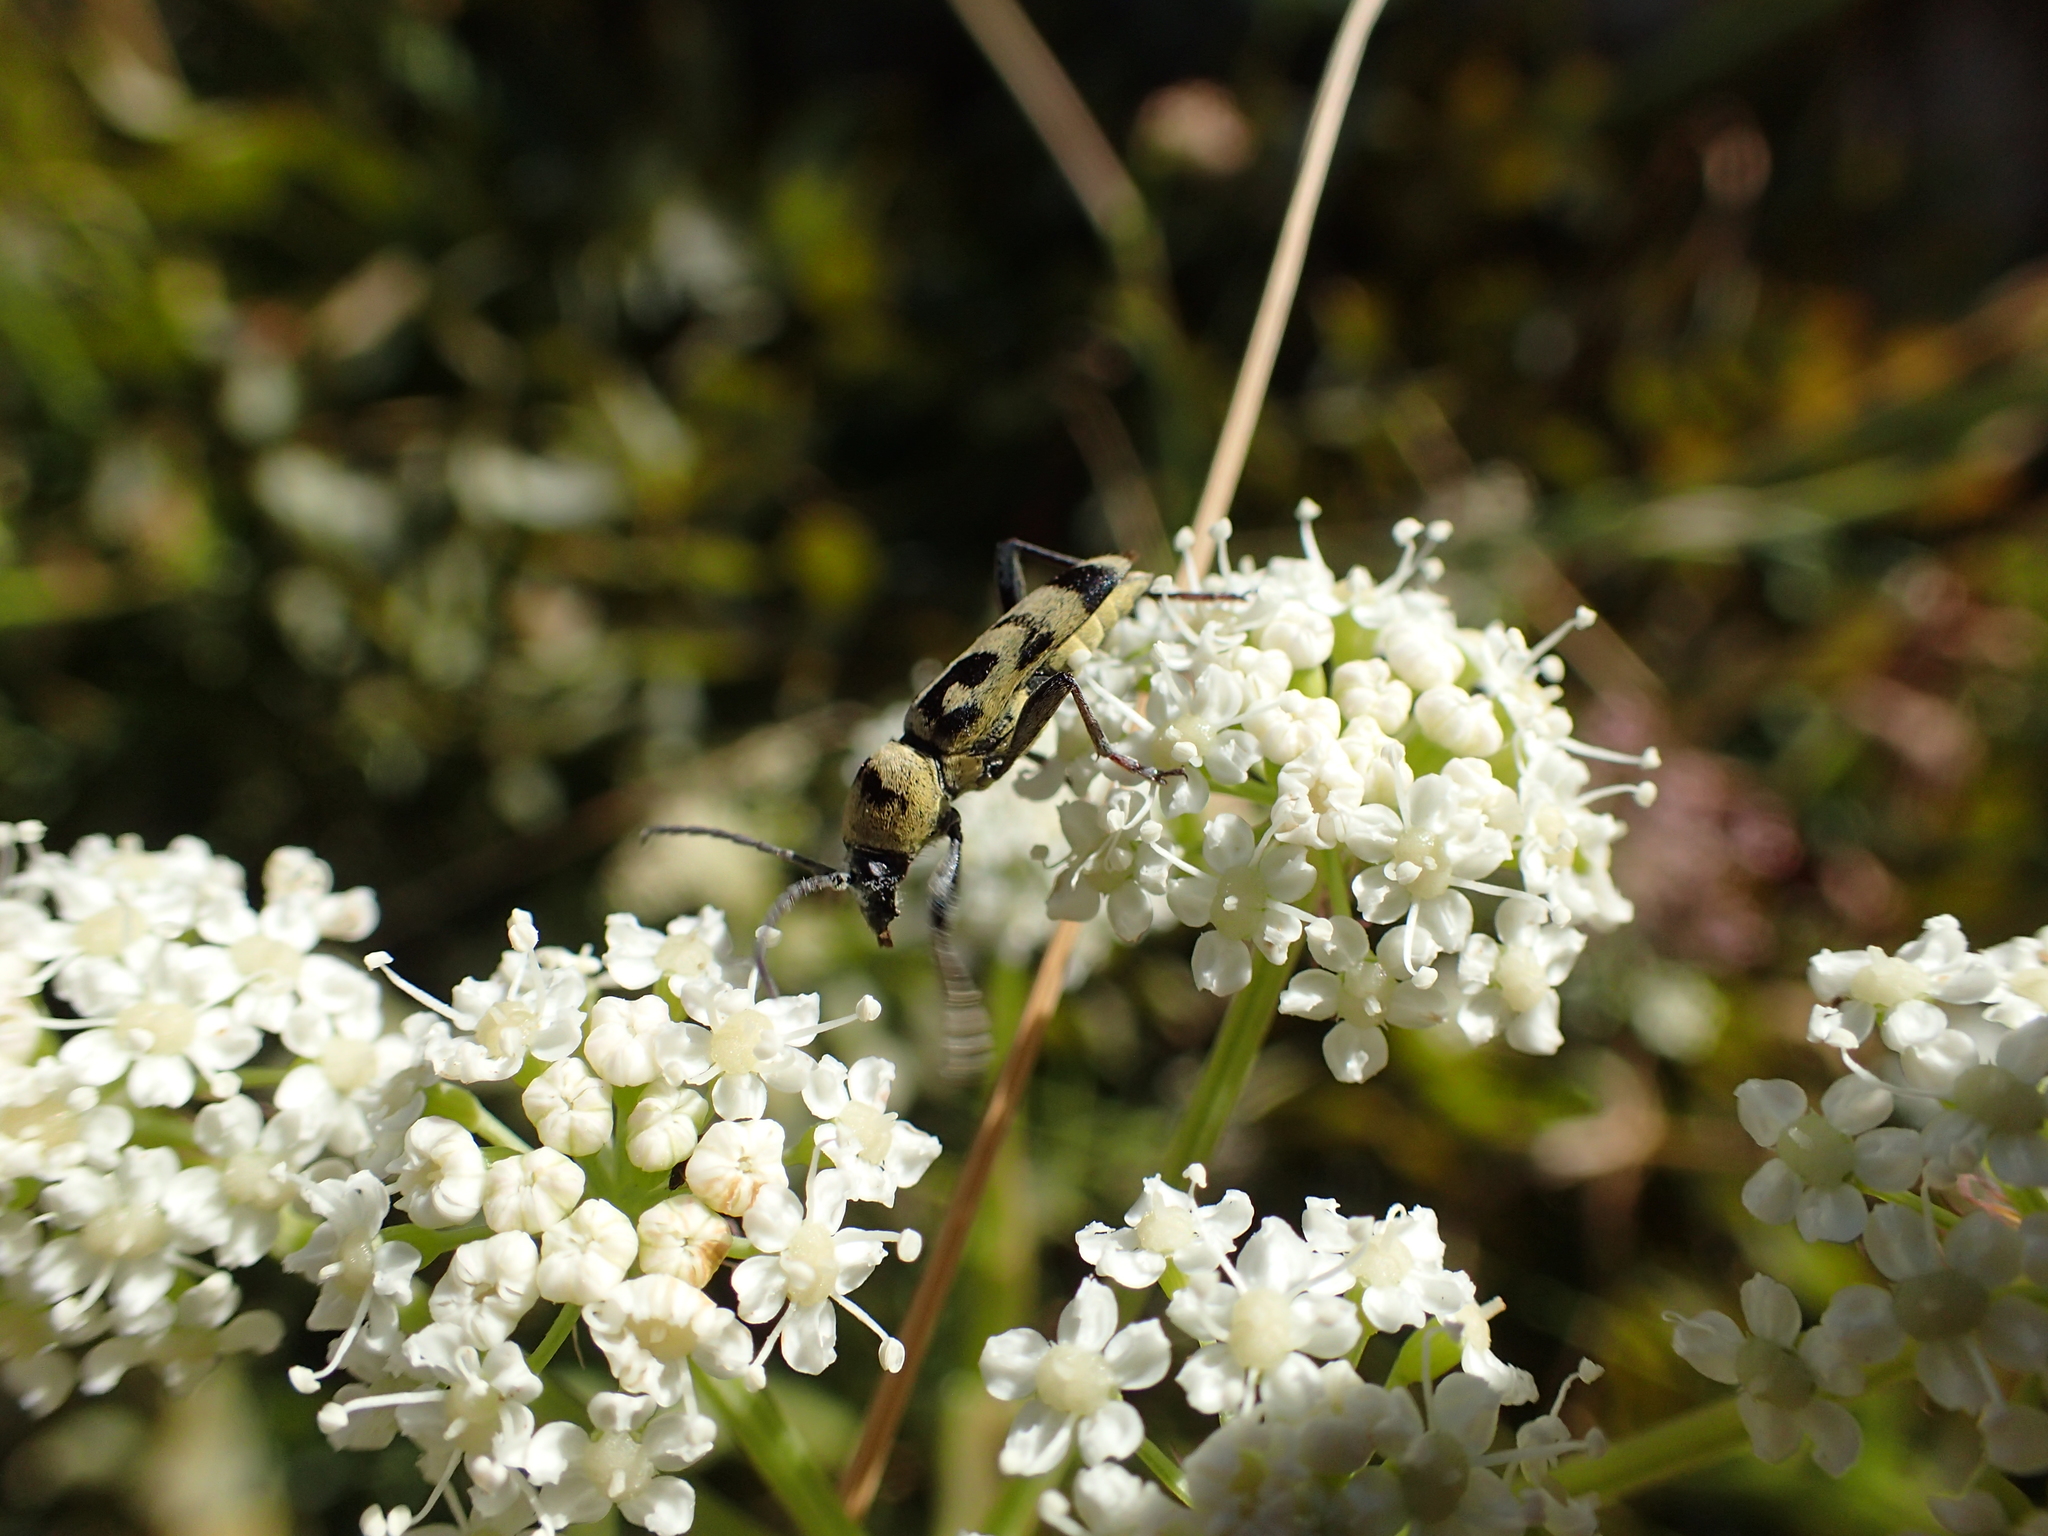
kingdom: Animalia
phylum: Arthropoda
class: Insecta
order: Coleoptera
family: Cerambycidae
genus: Chlorophorus
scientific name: Chlorophorus varius
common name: Grape wood borer
